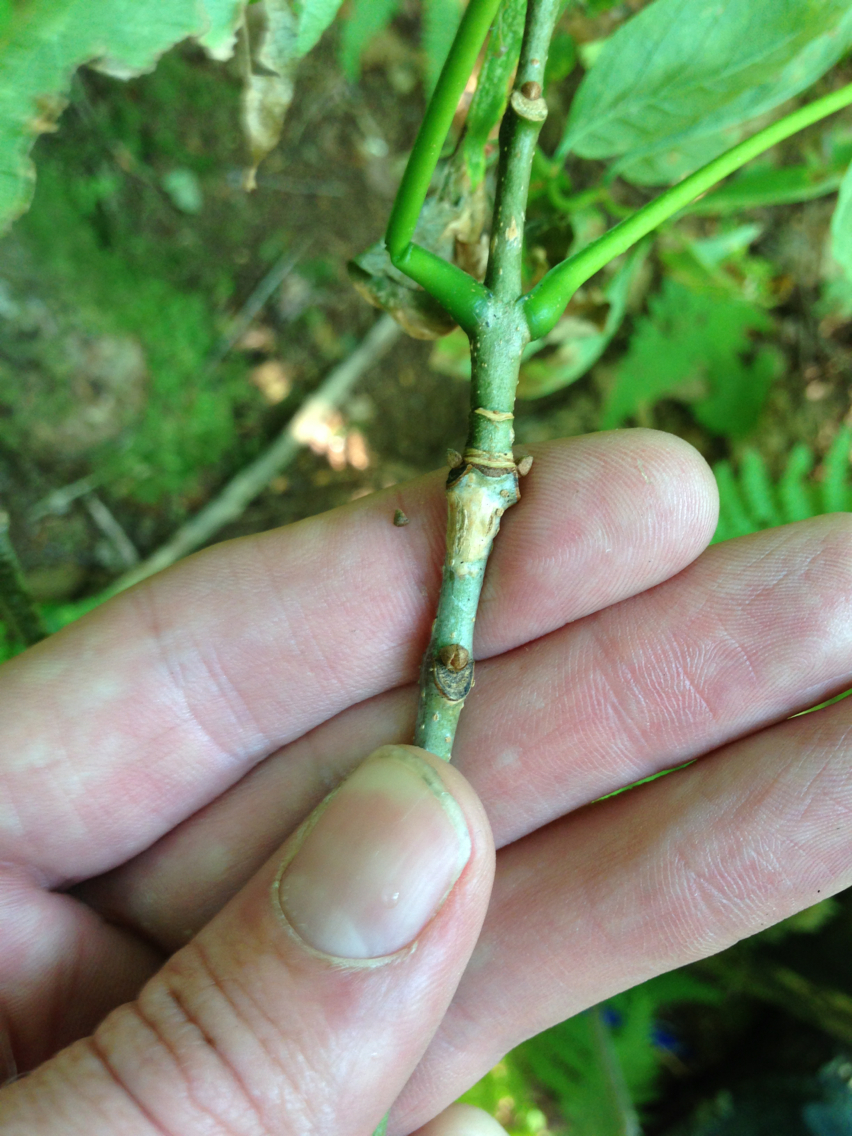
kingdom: Plantae
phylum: Tracheophyta
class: Magnoliopsida
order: Lamiales
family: Oleaceae
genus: Fraxinus
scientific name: Fraxinus americana
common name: White ash
